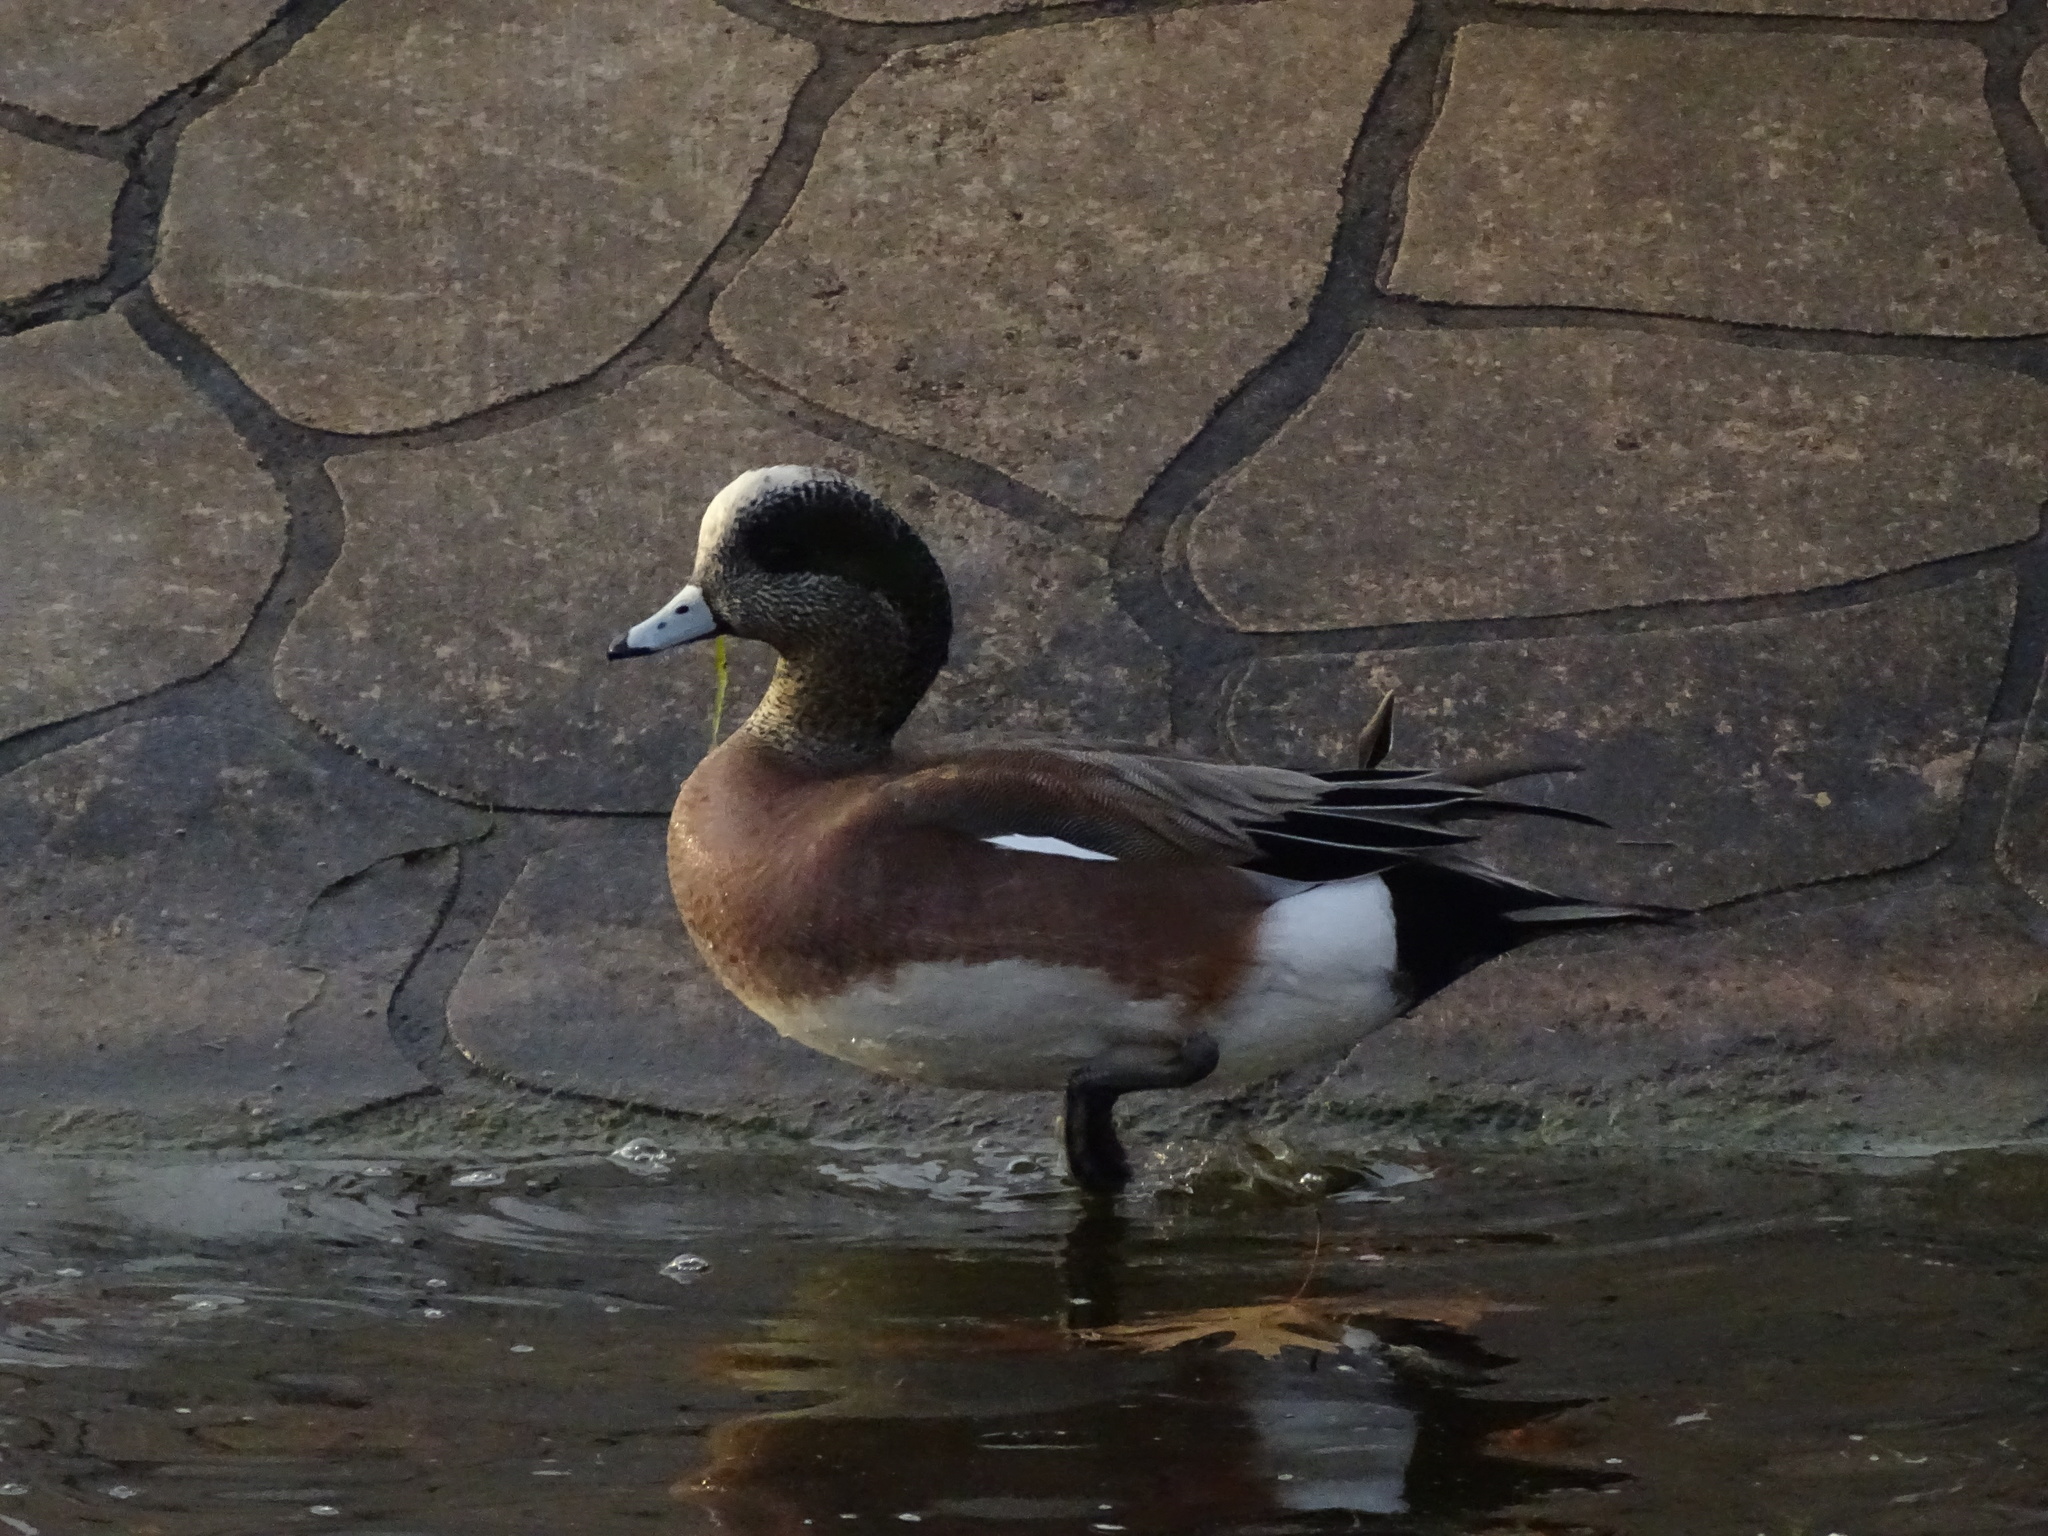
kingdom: Animalia
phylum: Chordata
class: Aves
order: Anseriformes
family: Anatidae
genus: Mareca
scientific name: Mareca americana
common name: American wigeon
